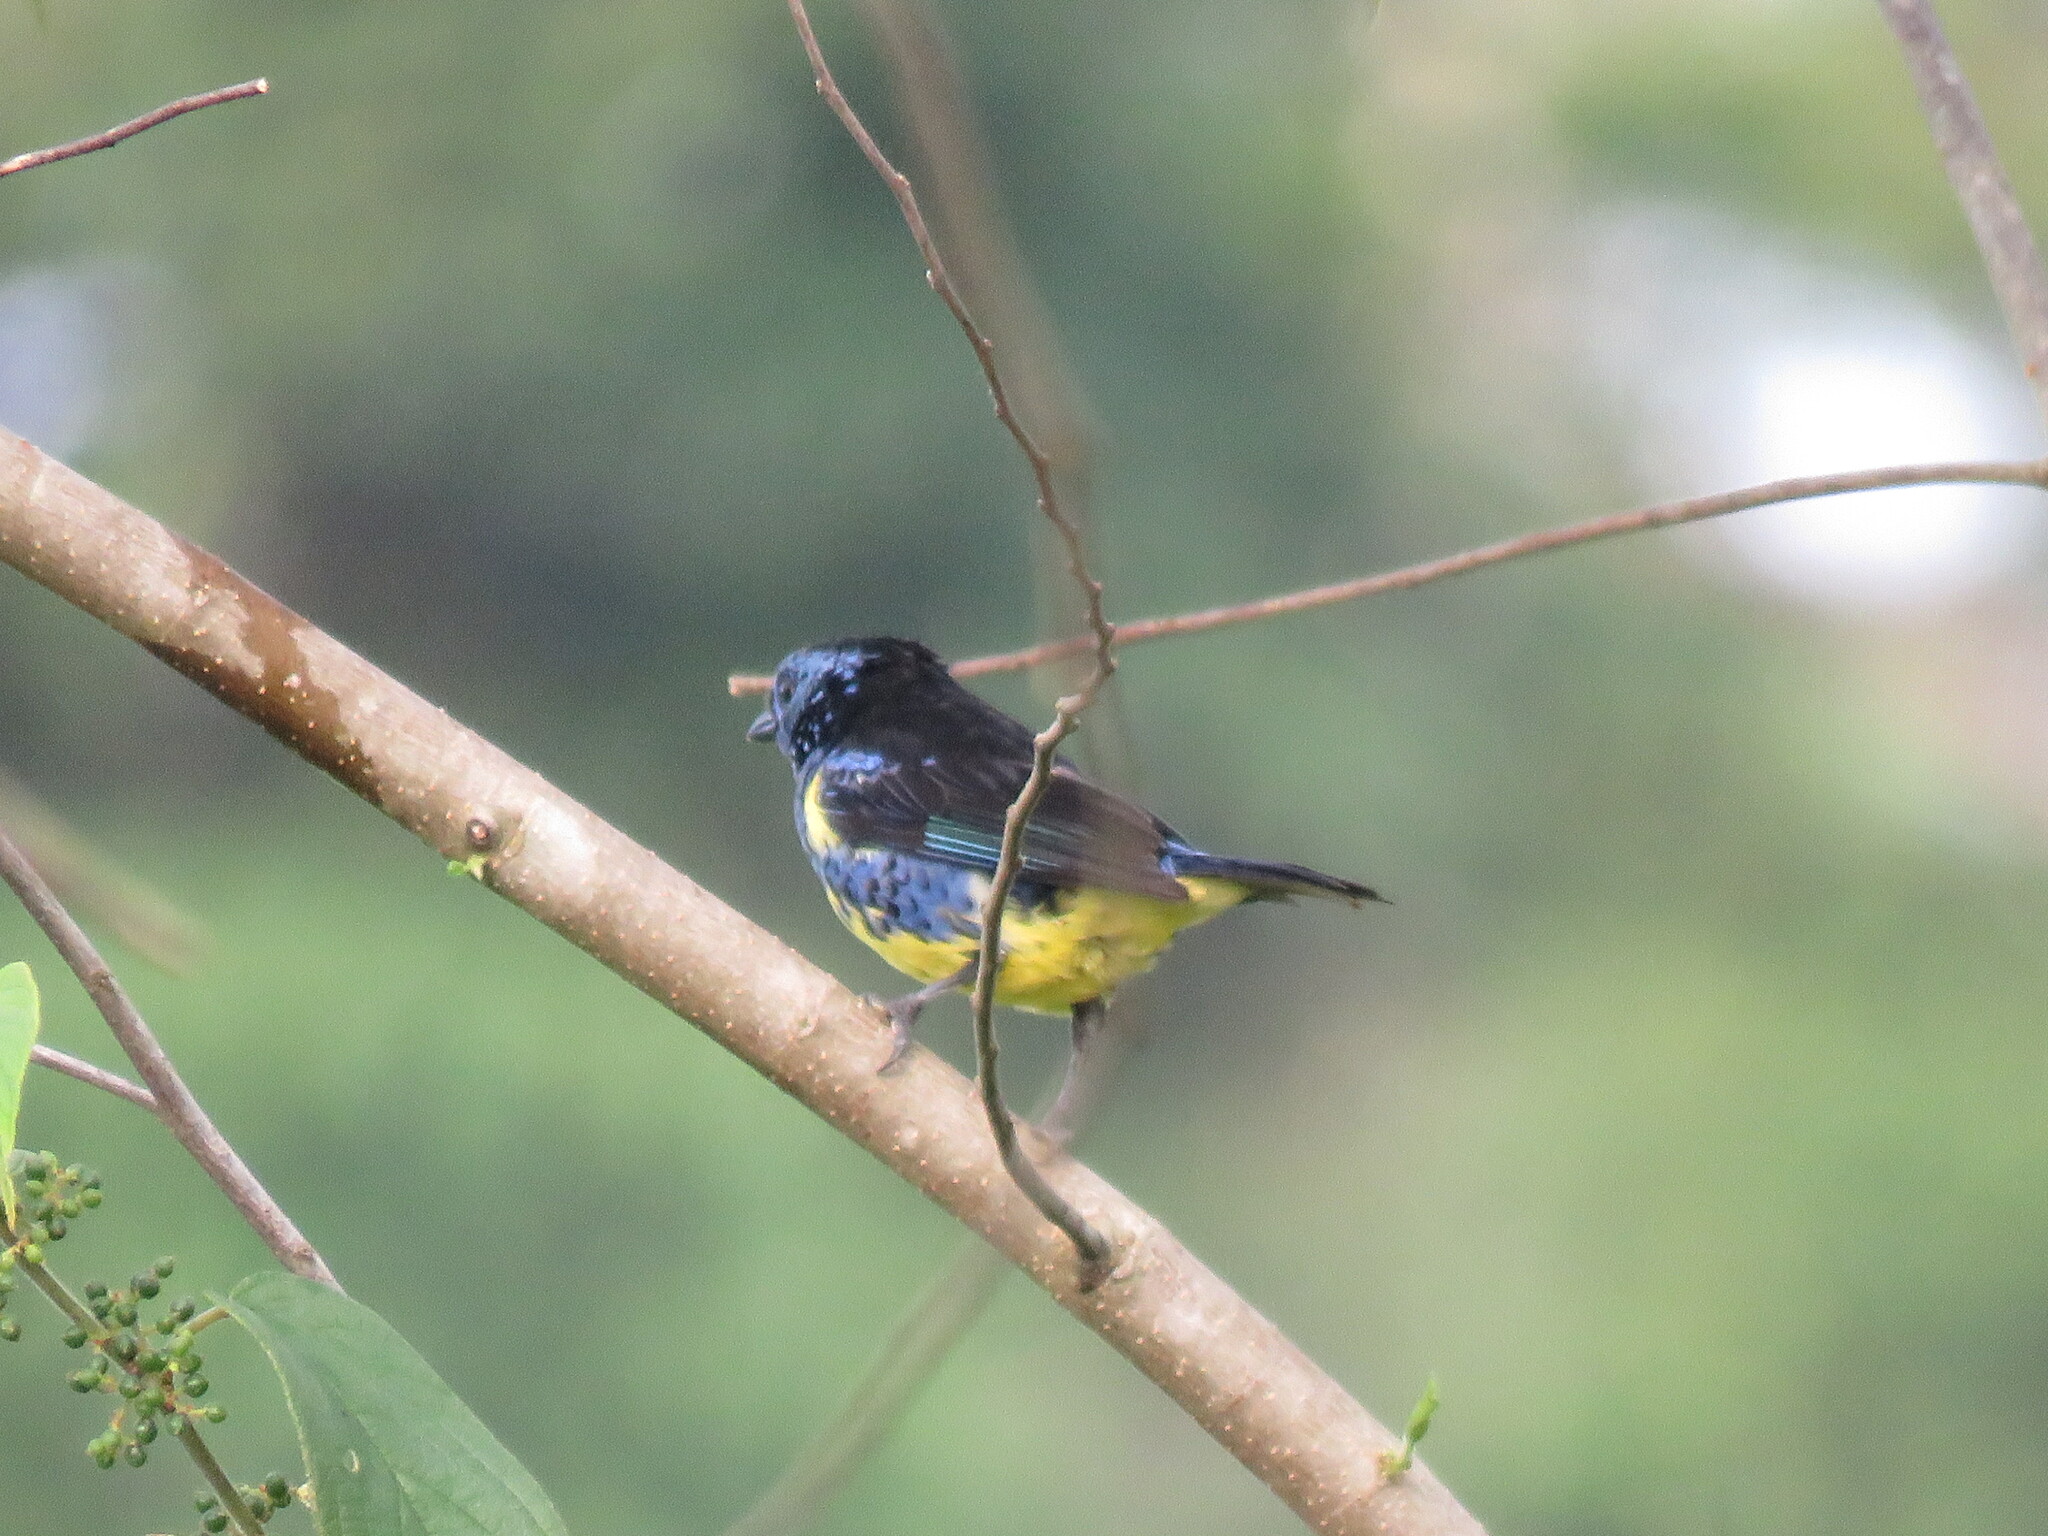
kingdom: Animalia
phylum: Chordata
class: Aves
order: Passeriformes
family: Thraupidae
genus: Tangara
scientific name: Tangara mexicana
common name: Turquoise tanager
